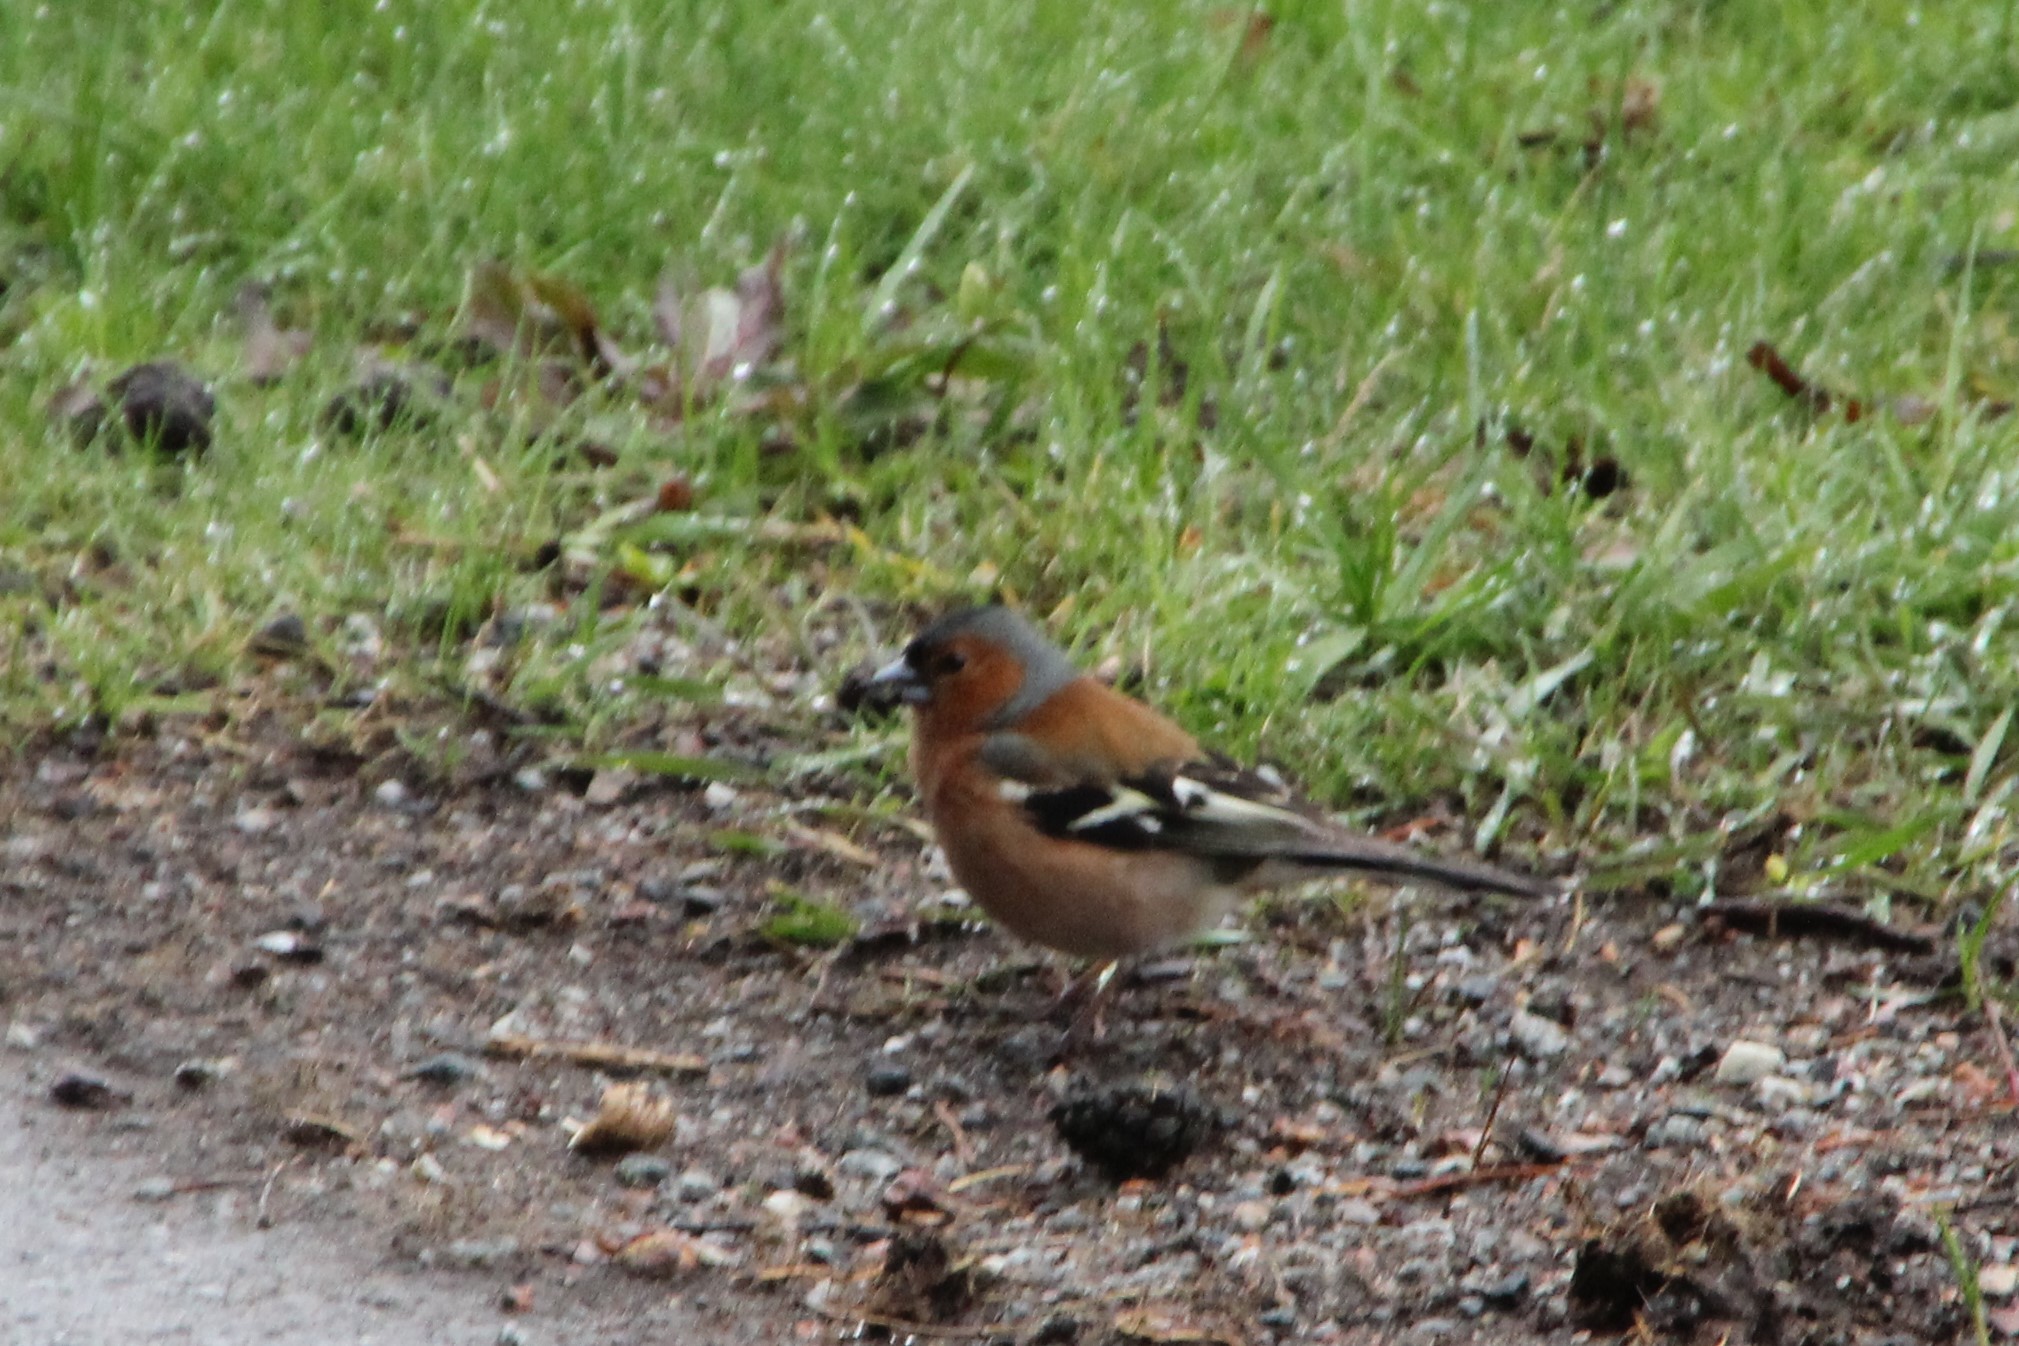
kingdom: Animalia
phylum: Chordata
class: Aves
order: Passeriformes
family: Fringillidae
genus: Fringilla
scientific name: Fringilla coelebs
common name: Common chaffinch
